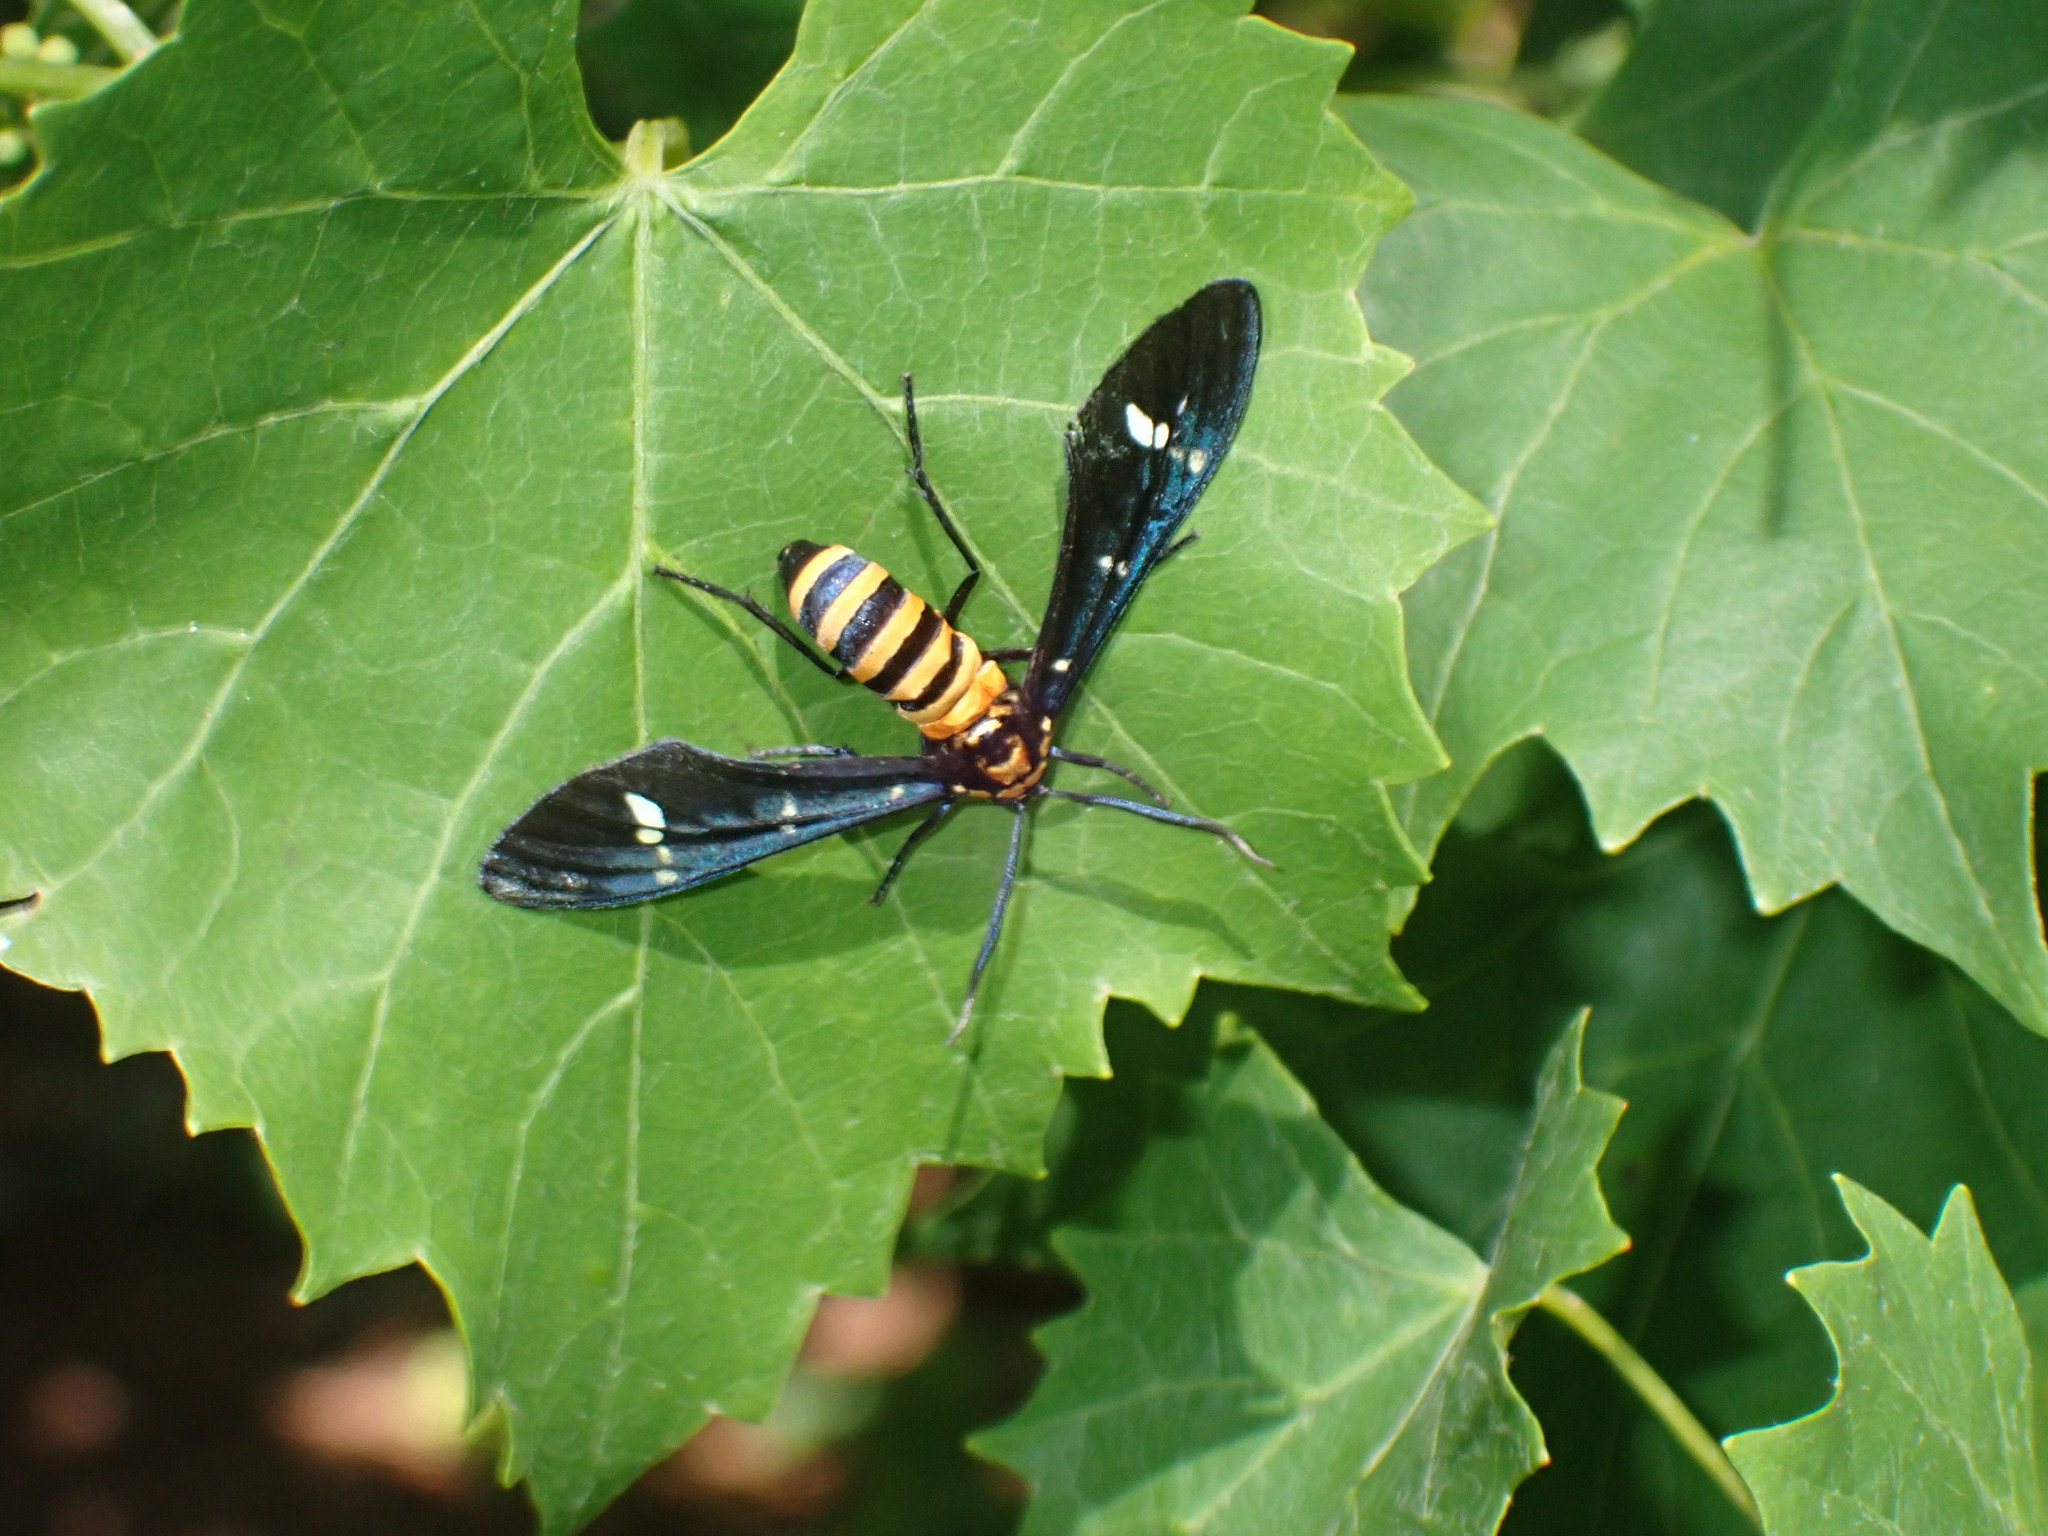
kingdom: Animalia
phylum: Arthropoda
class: Insecta
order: Lepidoptera
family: Erebidae
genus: Syntomeida
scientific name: Syntomeida ipomoeae
